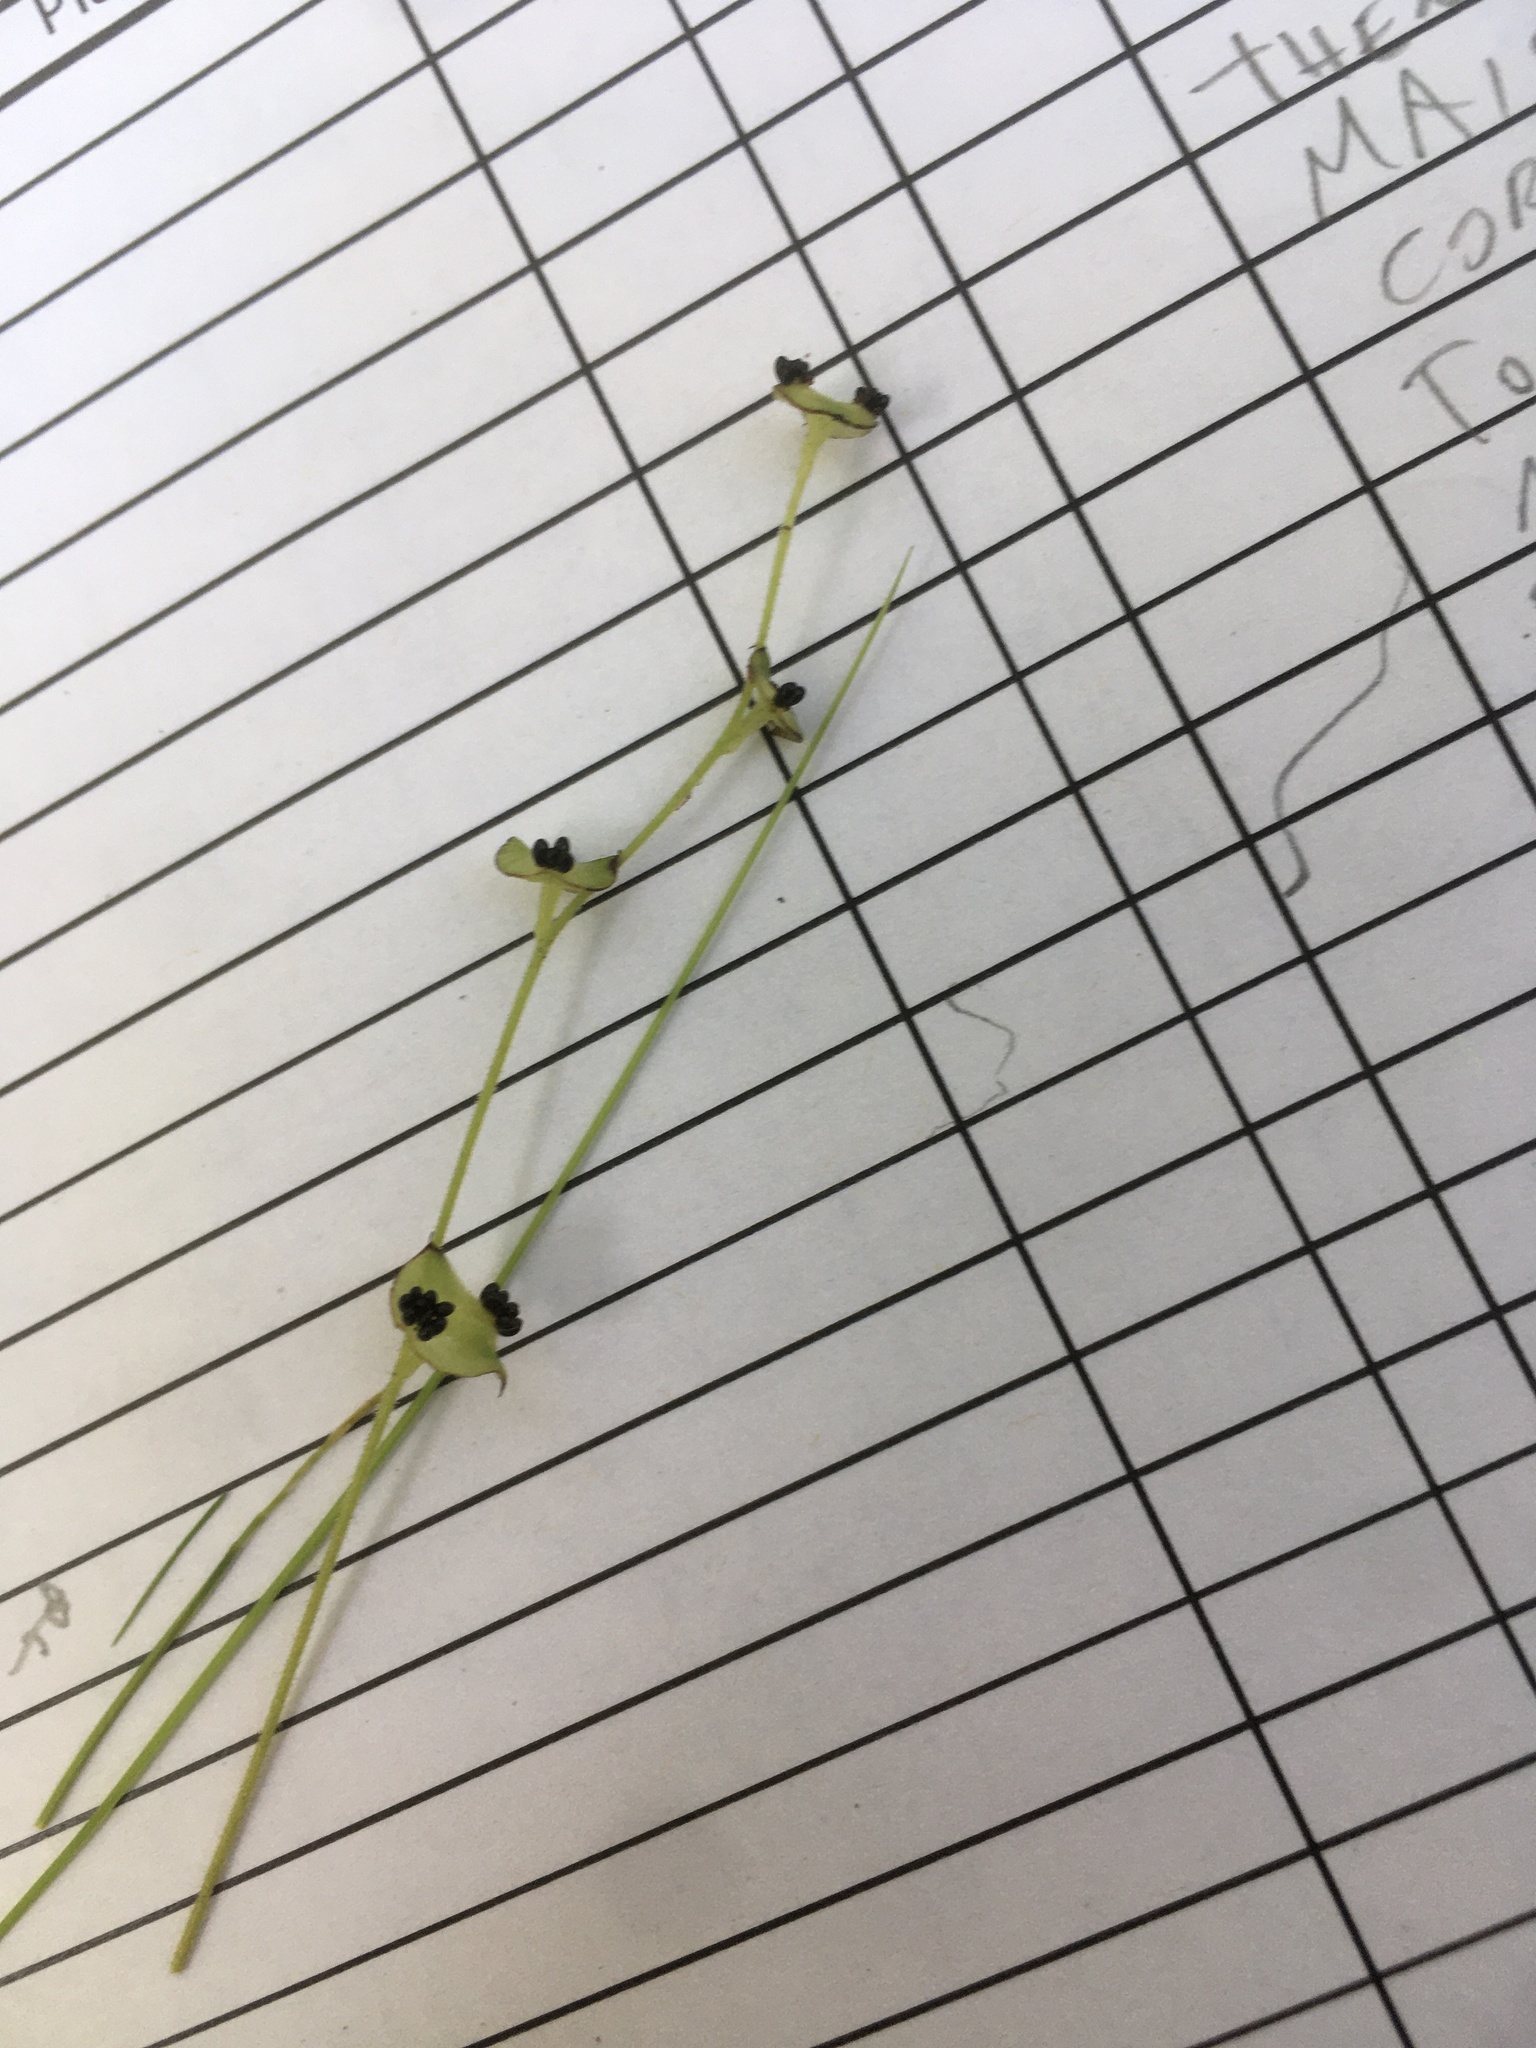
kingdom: Plantae
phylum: Tracheophyta
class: Magnoliopsida
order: Saxifragales
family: Saxifragaceae
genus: Mitella
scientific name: Mitella nuda
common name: Bare-stemmed bishop's-cap
